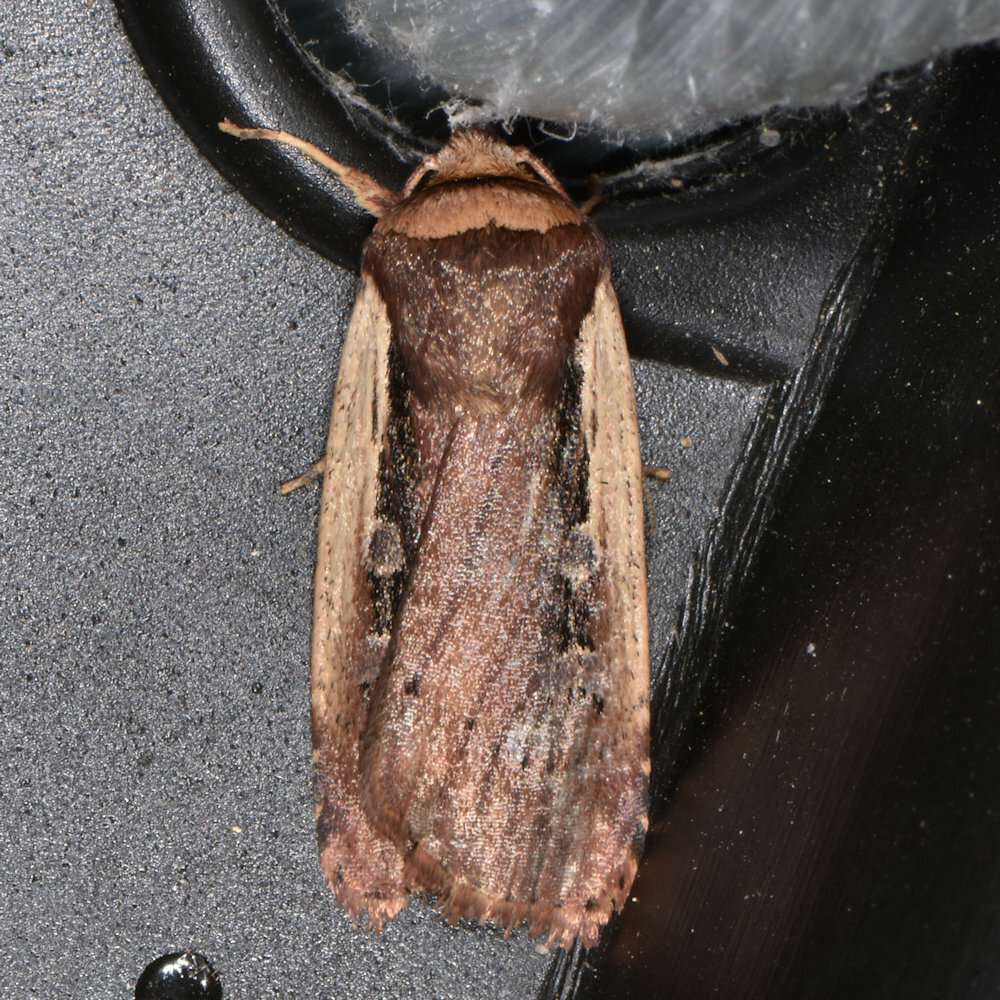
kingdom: Animalia
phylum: Arthropoda
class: Insecta
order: Lepidoptera
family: Noctuidae
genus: Ochropleura
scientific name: Ochropleura implecta
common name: Flame-shouldered dart
